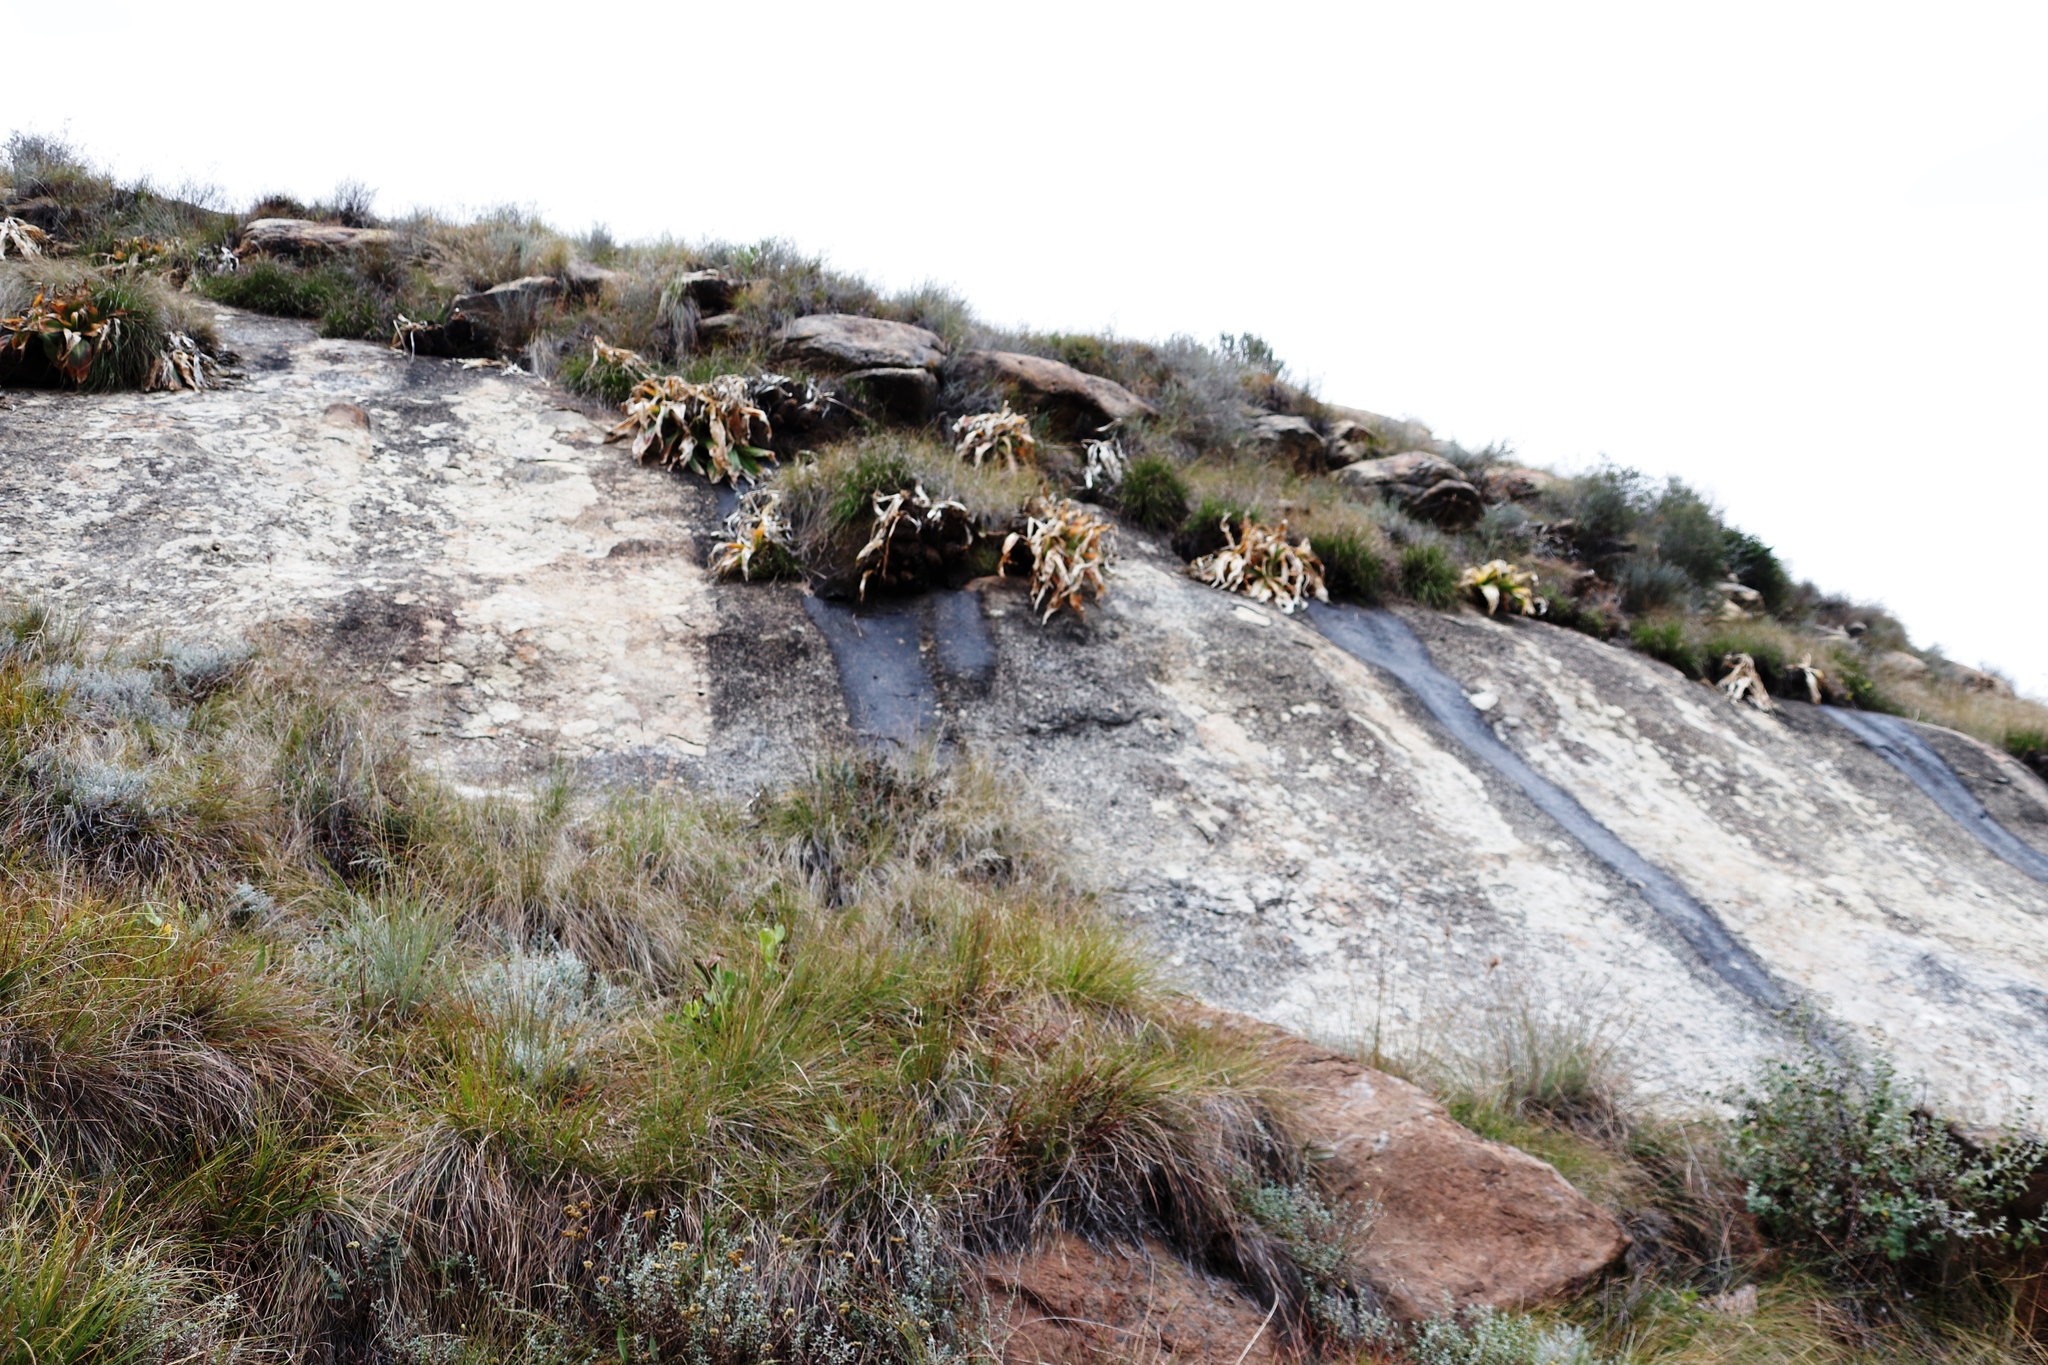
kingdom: Plantae
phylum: Tracheophyta
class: Liliopsida
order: Asparagales
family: Asparagaceae
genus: Merwilla
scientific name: Merwilla plumbea
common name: Blue-squill
